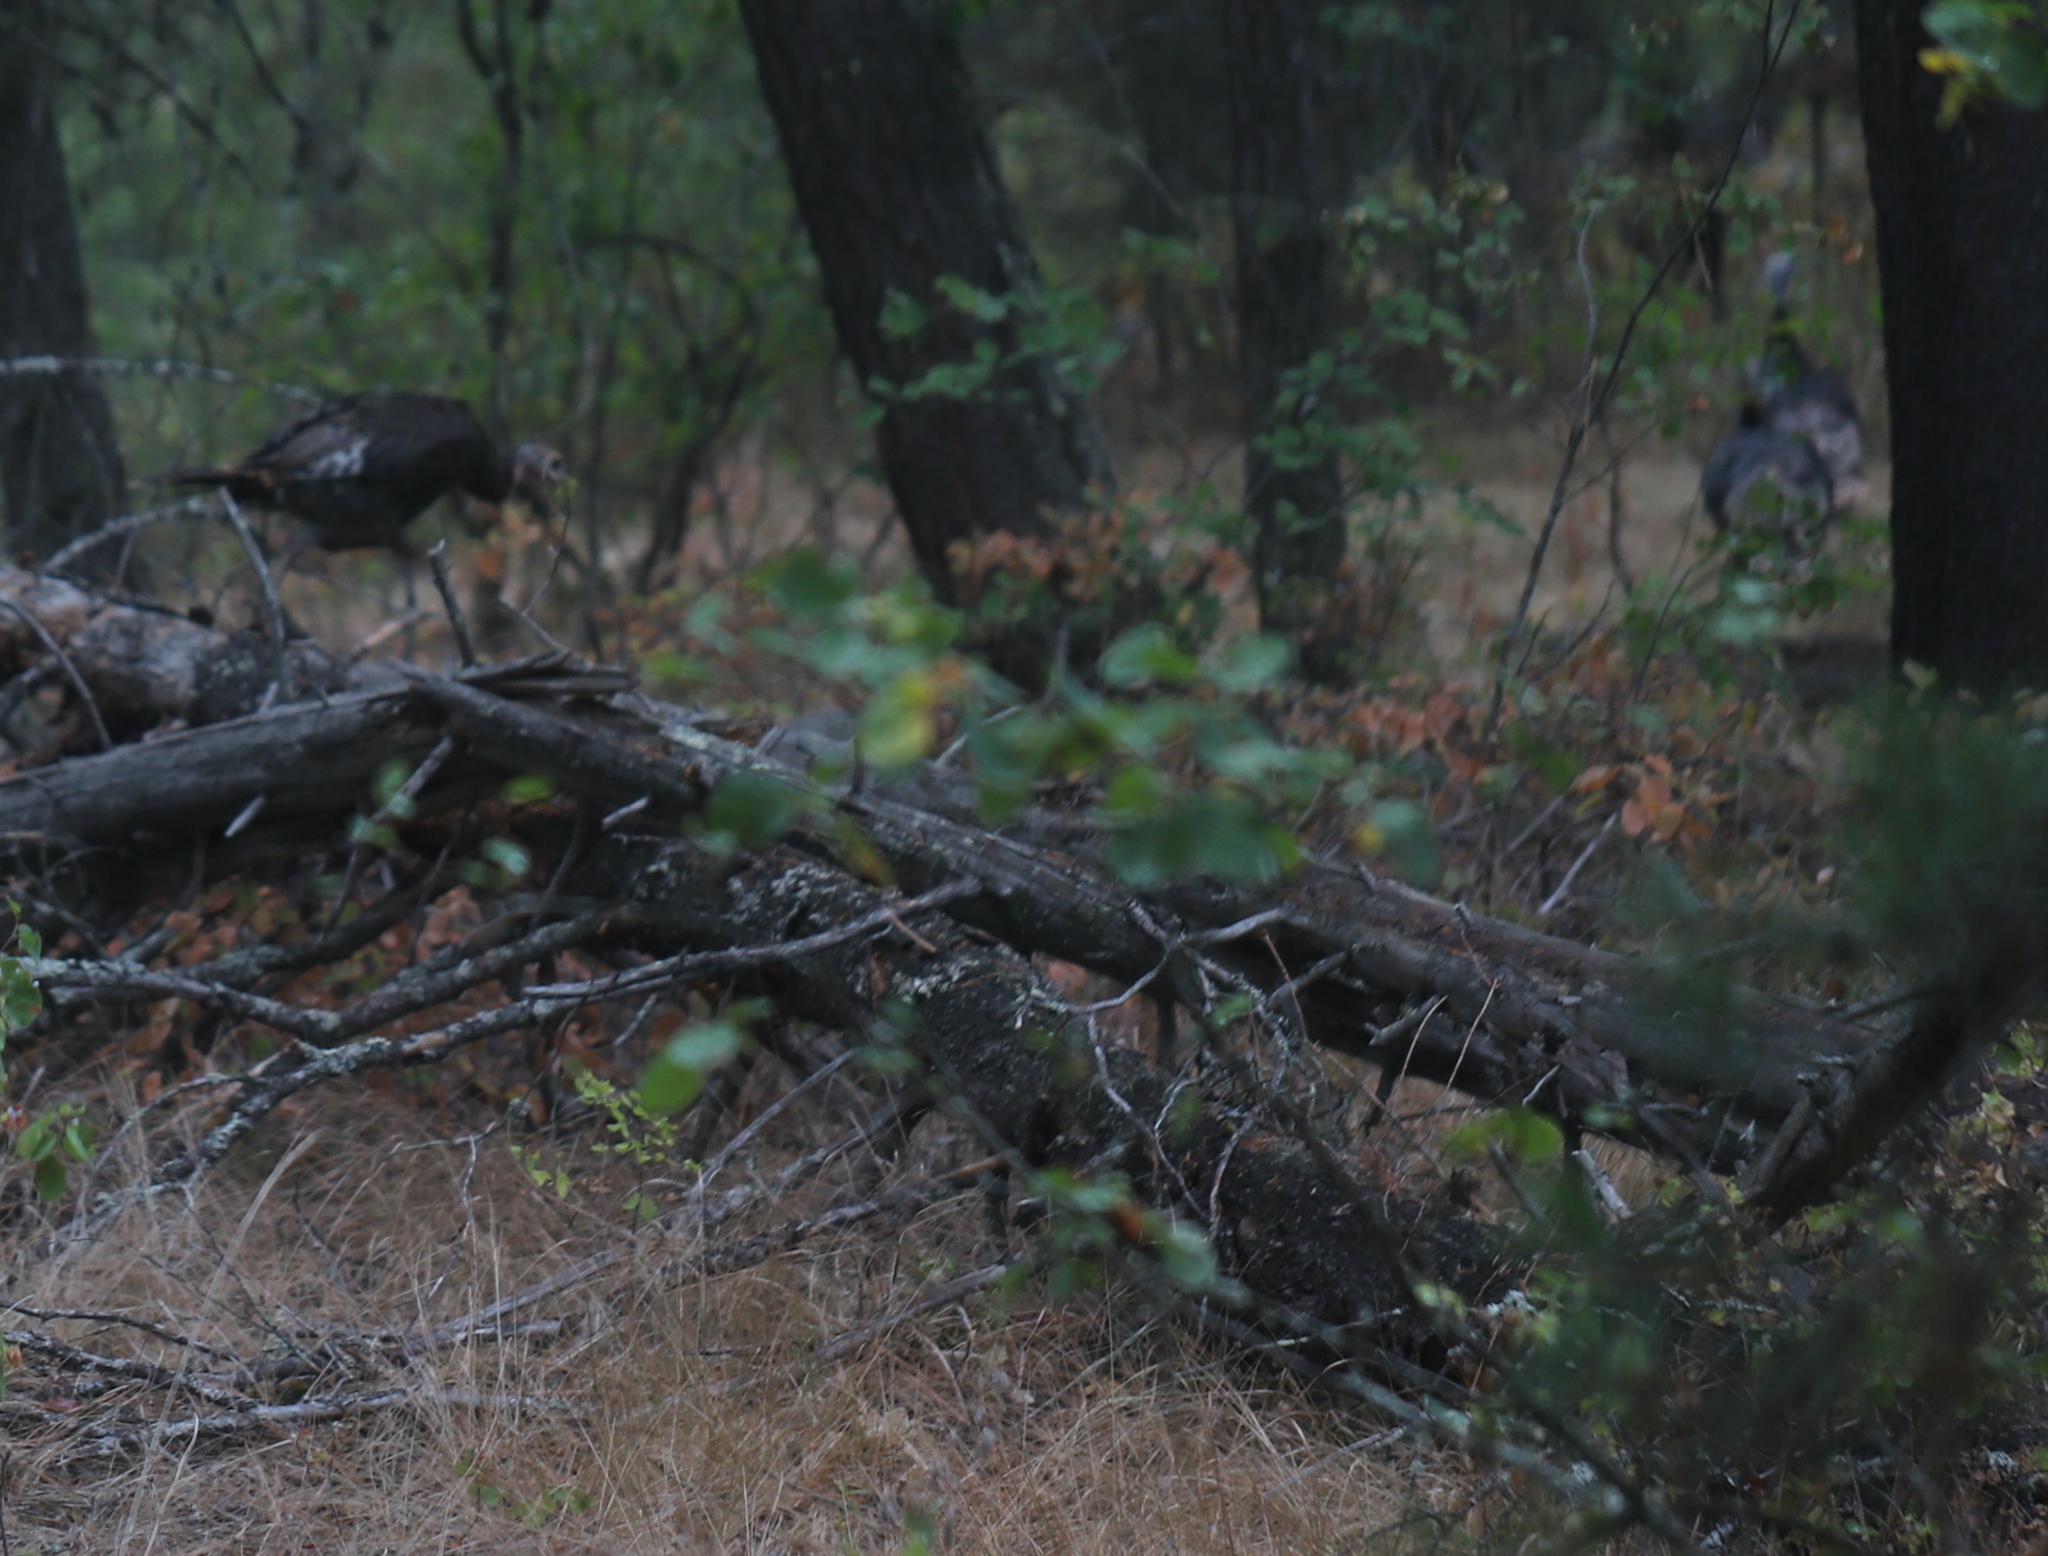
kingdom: Animalia
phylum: Chordata
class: Aves
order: Galliformes
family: Phasianidae
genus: Meleagris
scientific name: Meleagris gallopavo
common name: Wild turkey
